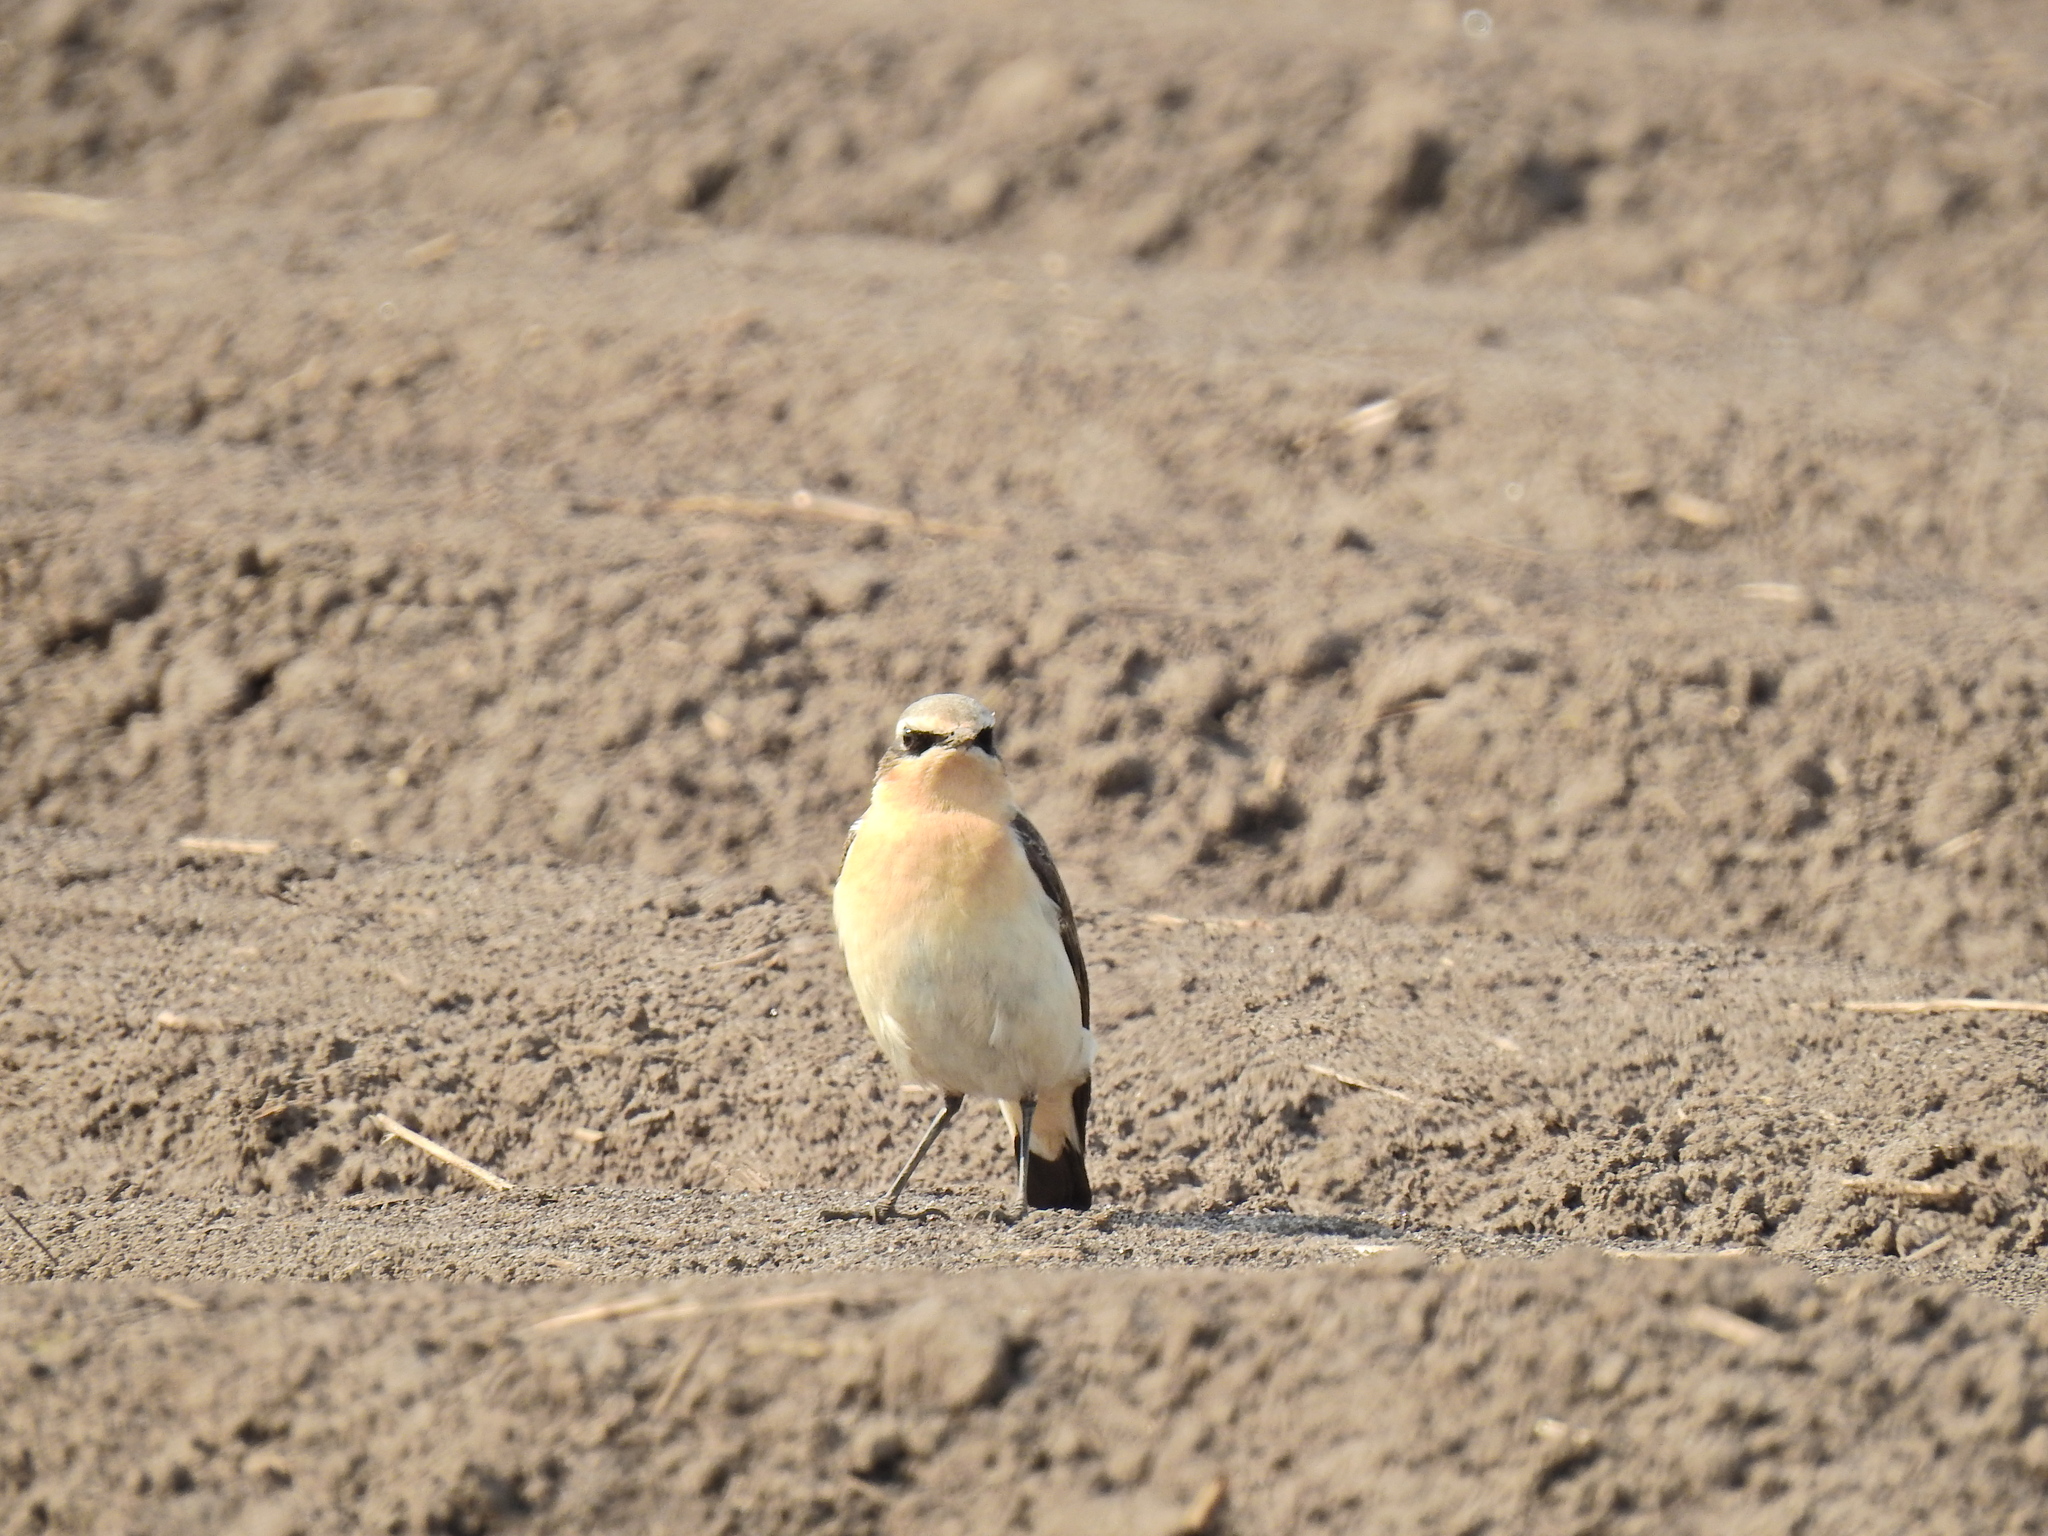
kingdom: Animalia
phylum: Chordata
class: Aves
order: Passeriformes
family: Muscicapidae
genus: Oenanthe
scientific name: Oenanthe oenanthe
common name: Northern wheatear
